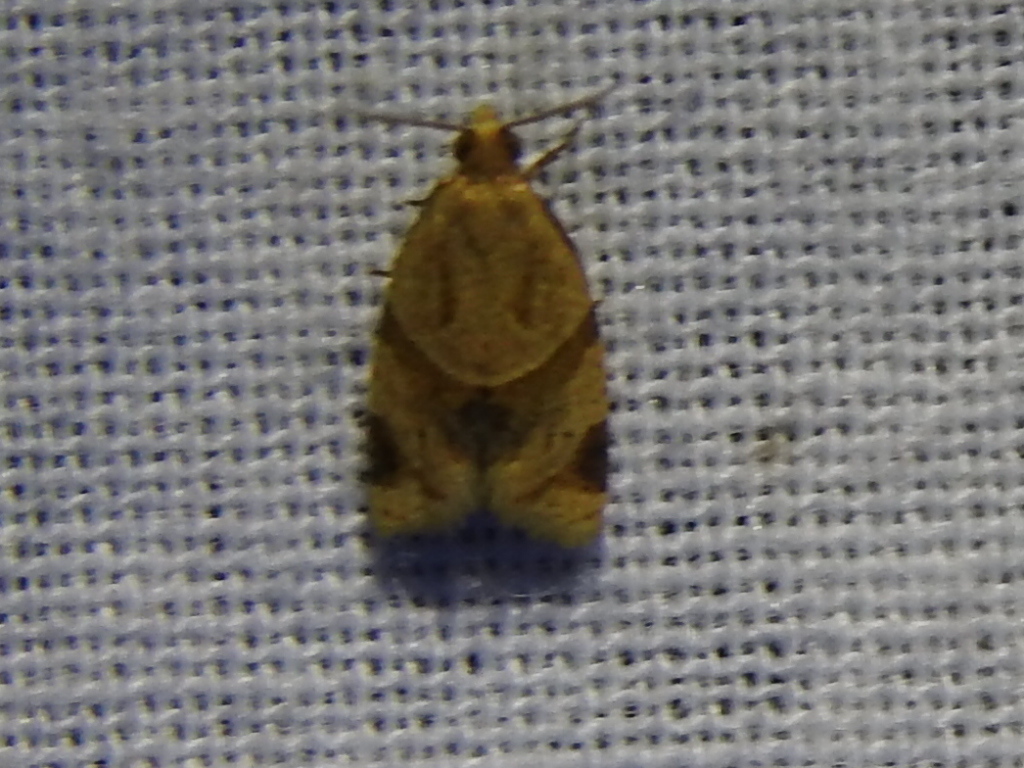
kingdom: Animalia
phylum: Arthropoda
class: Insecta
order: Lepidoptera
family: Tortricidae
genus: Clepsis
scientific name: Clepsis peritana
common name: Garden tortrix
